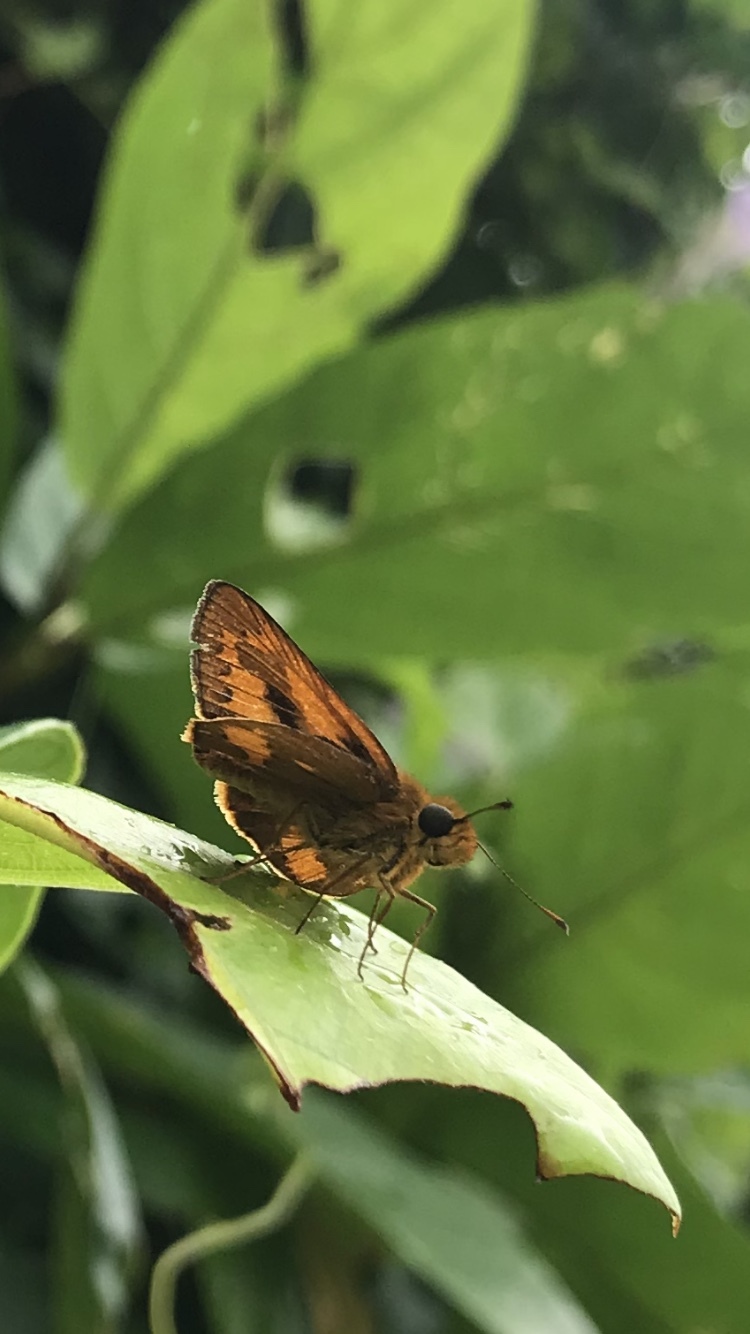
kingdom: Animalia
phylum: Arthropoda
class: Insecta
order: Lepidoptera
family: Hesperiidae
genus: Telicota
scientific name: Telicota augias
